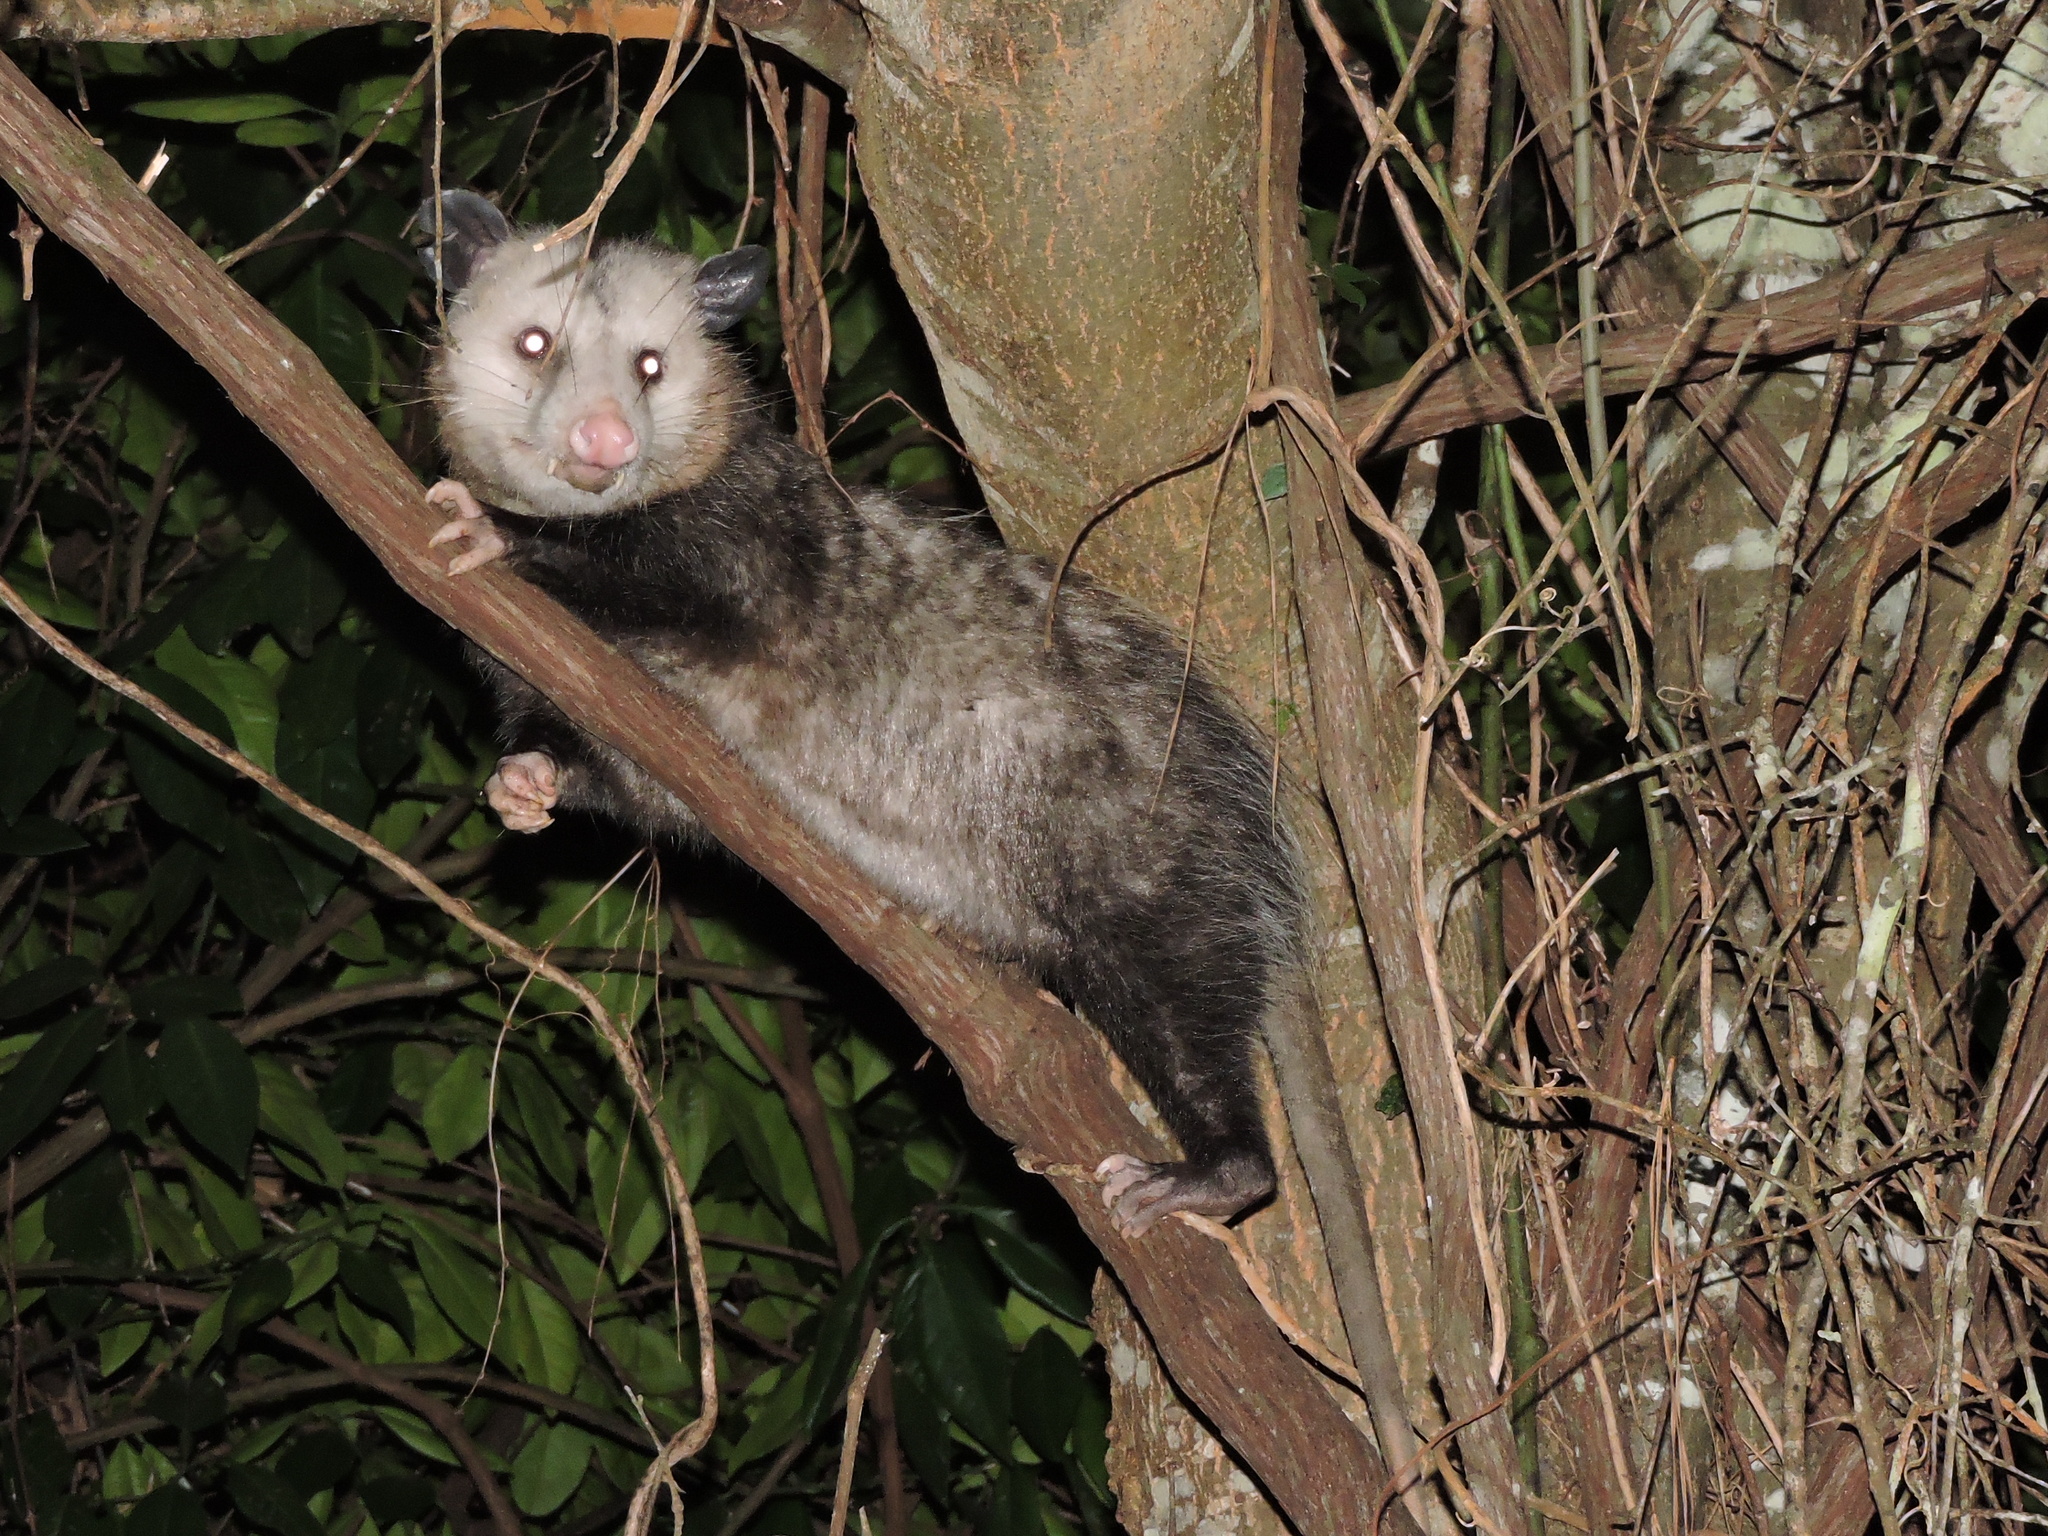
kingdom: Animalia
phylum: Chordata
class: Mammalia
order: Didelphimorphia
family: Didelphidae
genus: Didelphis
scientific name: Didelphis virginiana
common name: Virginia opossum
